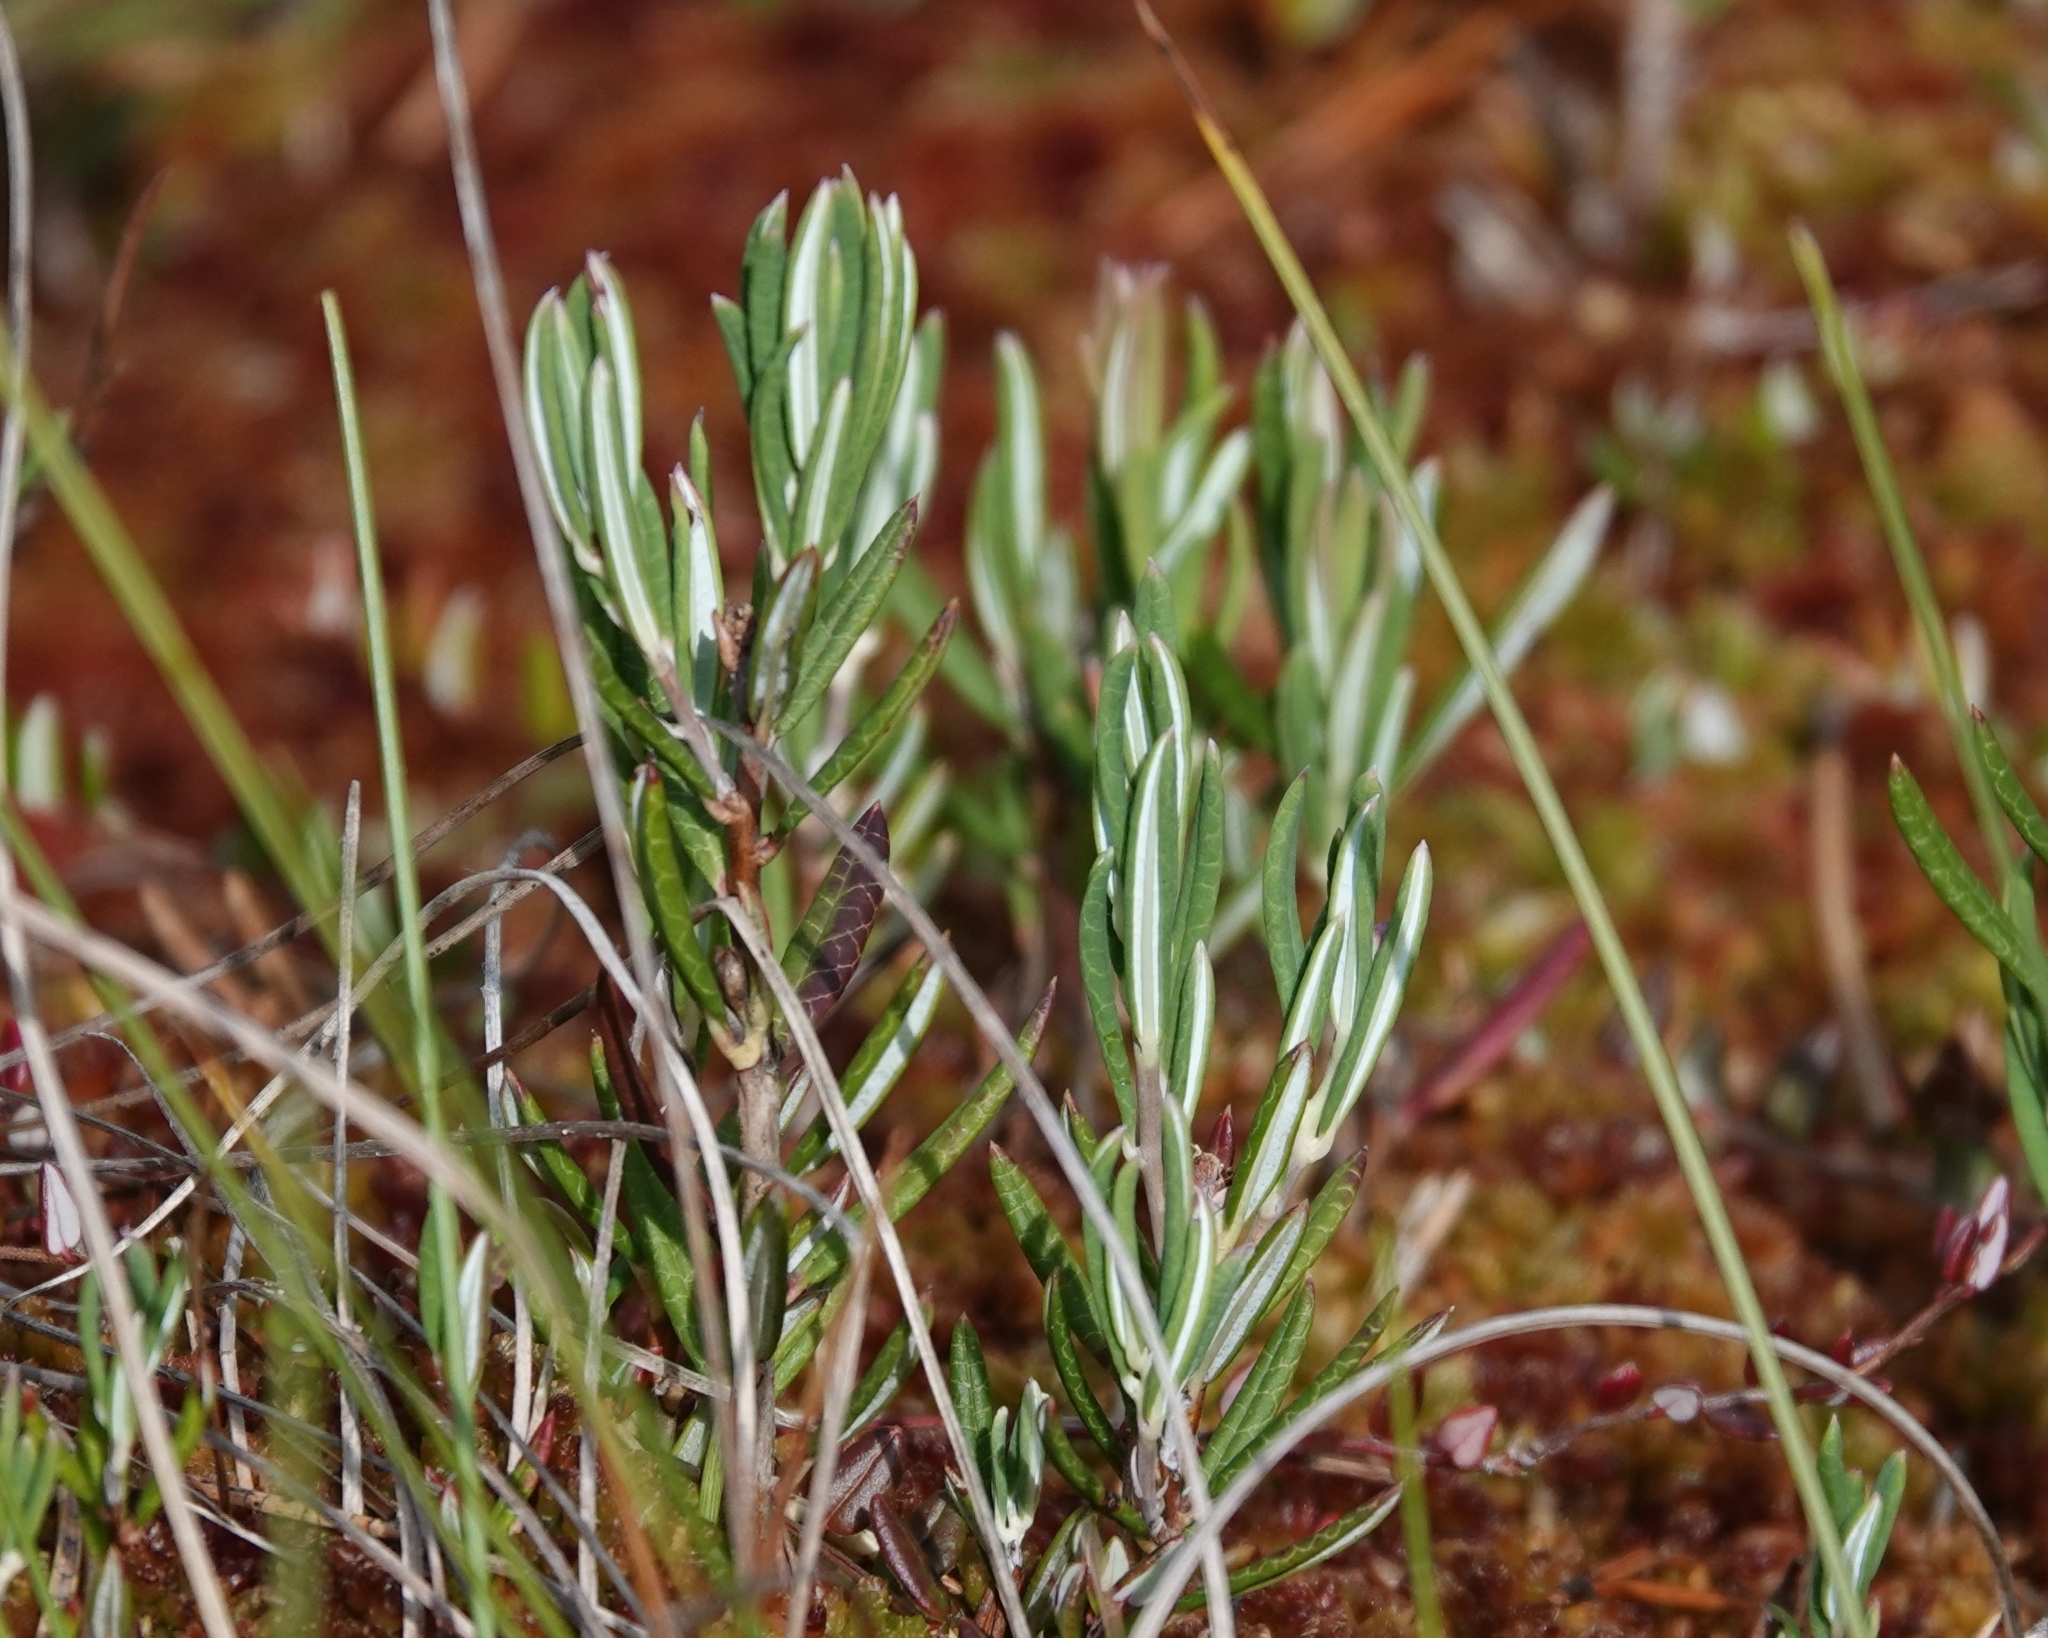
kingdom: Plantae
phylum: Tracheophyta
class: Magnoliopsida
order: Ericales
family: Ericaceae
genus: Andromeda
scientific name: Andromeda polifolia
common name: Bog-rosemary
